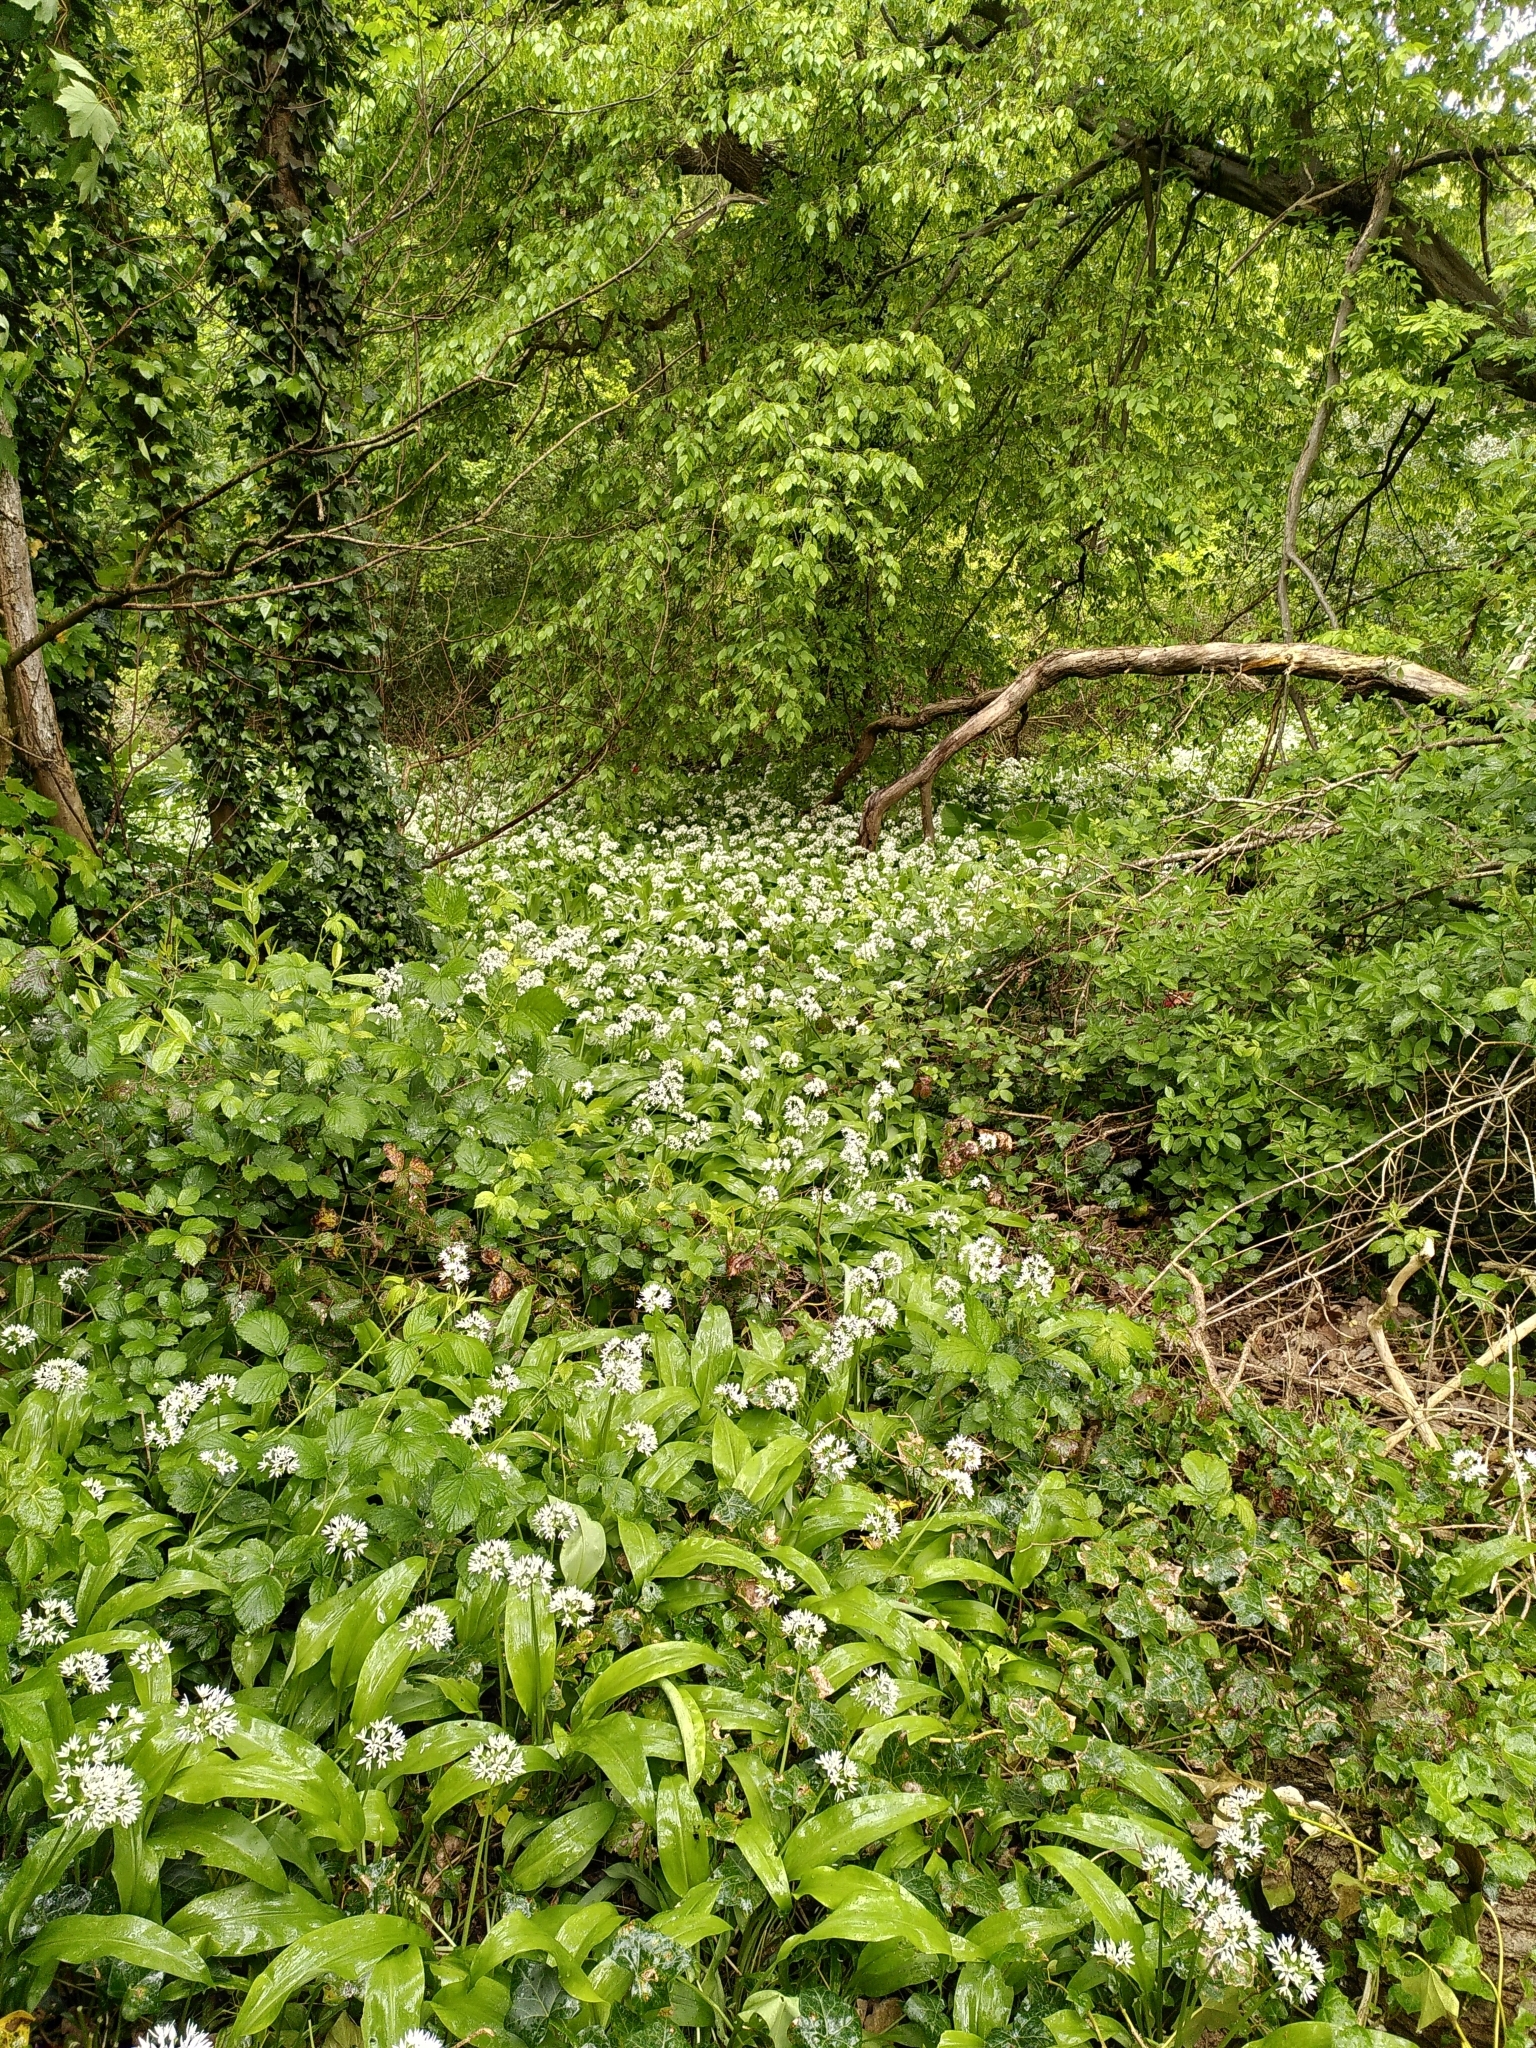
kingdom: Plantae
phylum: Tracheophyta
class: Liliopsida
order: Asparagales
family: Amaryllidaceae
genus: Allium
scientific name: Allium ursinum
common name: Ramsons
